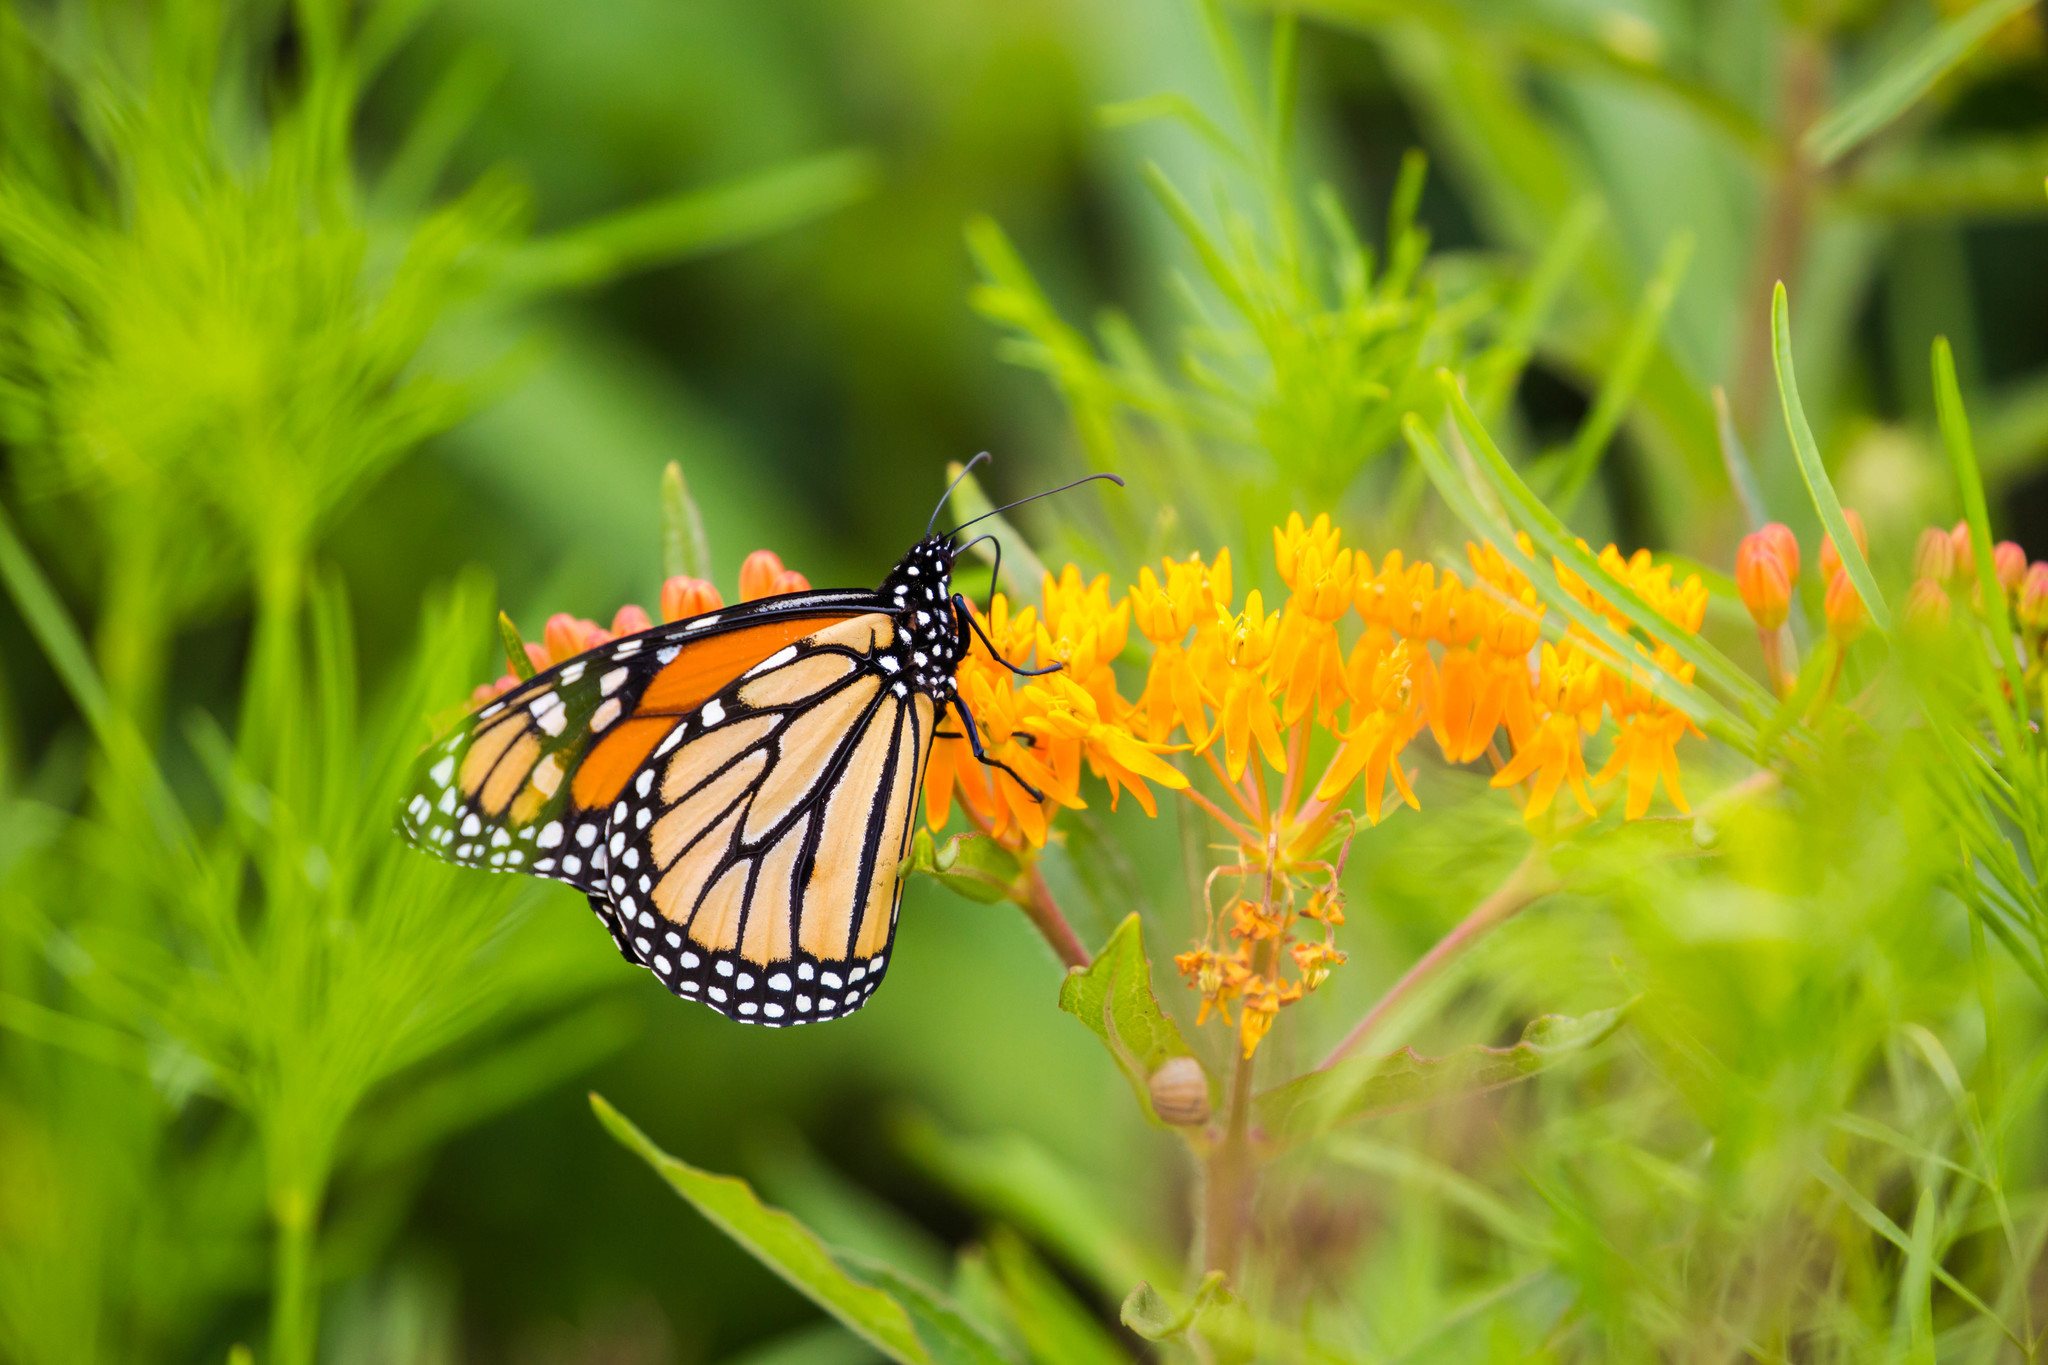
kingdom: Animalia
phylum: Arthropoda
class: Insecta
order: Lepidoptera
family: Nymphalidae
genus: Danaus
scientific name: Danaus plexippus
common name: Monarch
